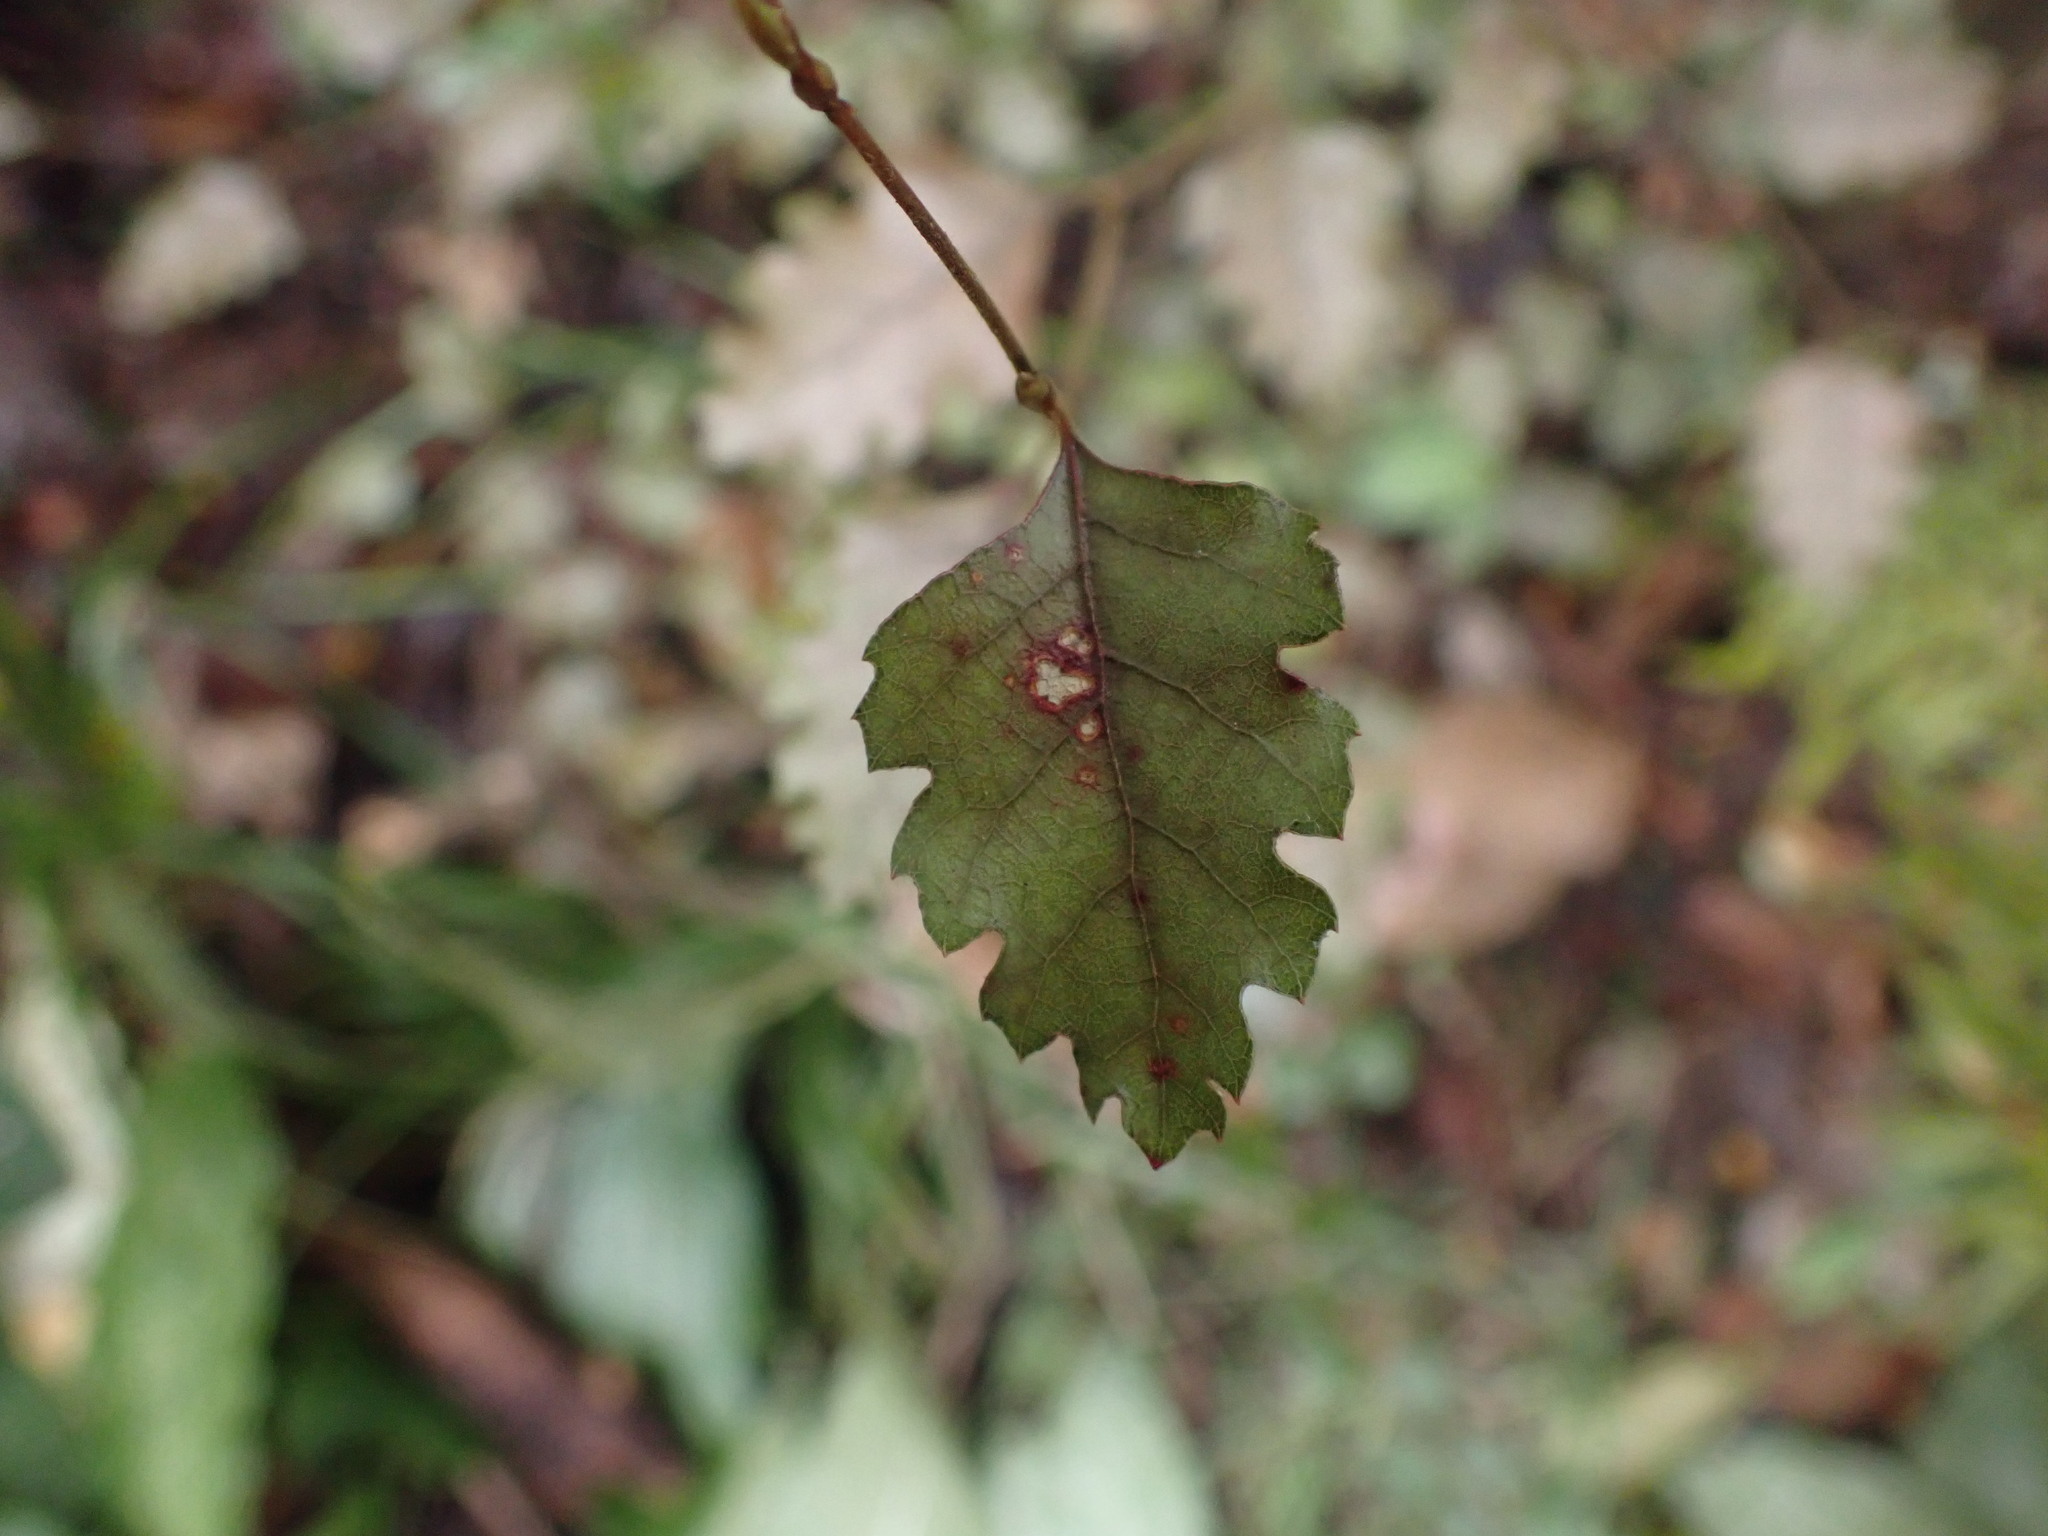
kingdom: Plantae
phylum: Tracheophyta
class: Magnoliopsida
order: Fagales
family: Nothofagaceae
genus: Nothofagus
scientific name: Nothofagus fusca
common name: Red beech
